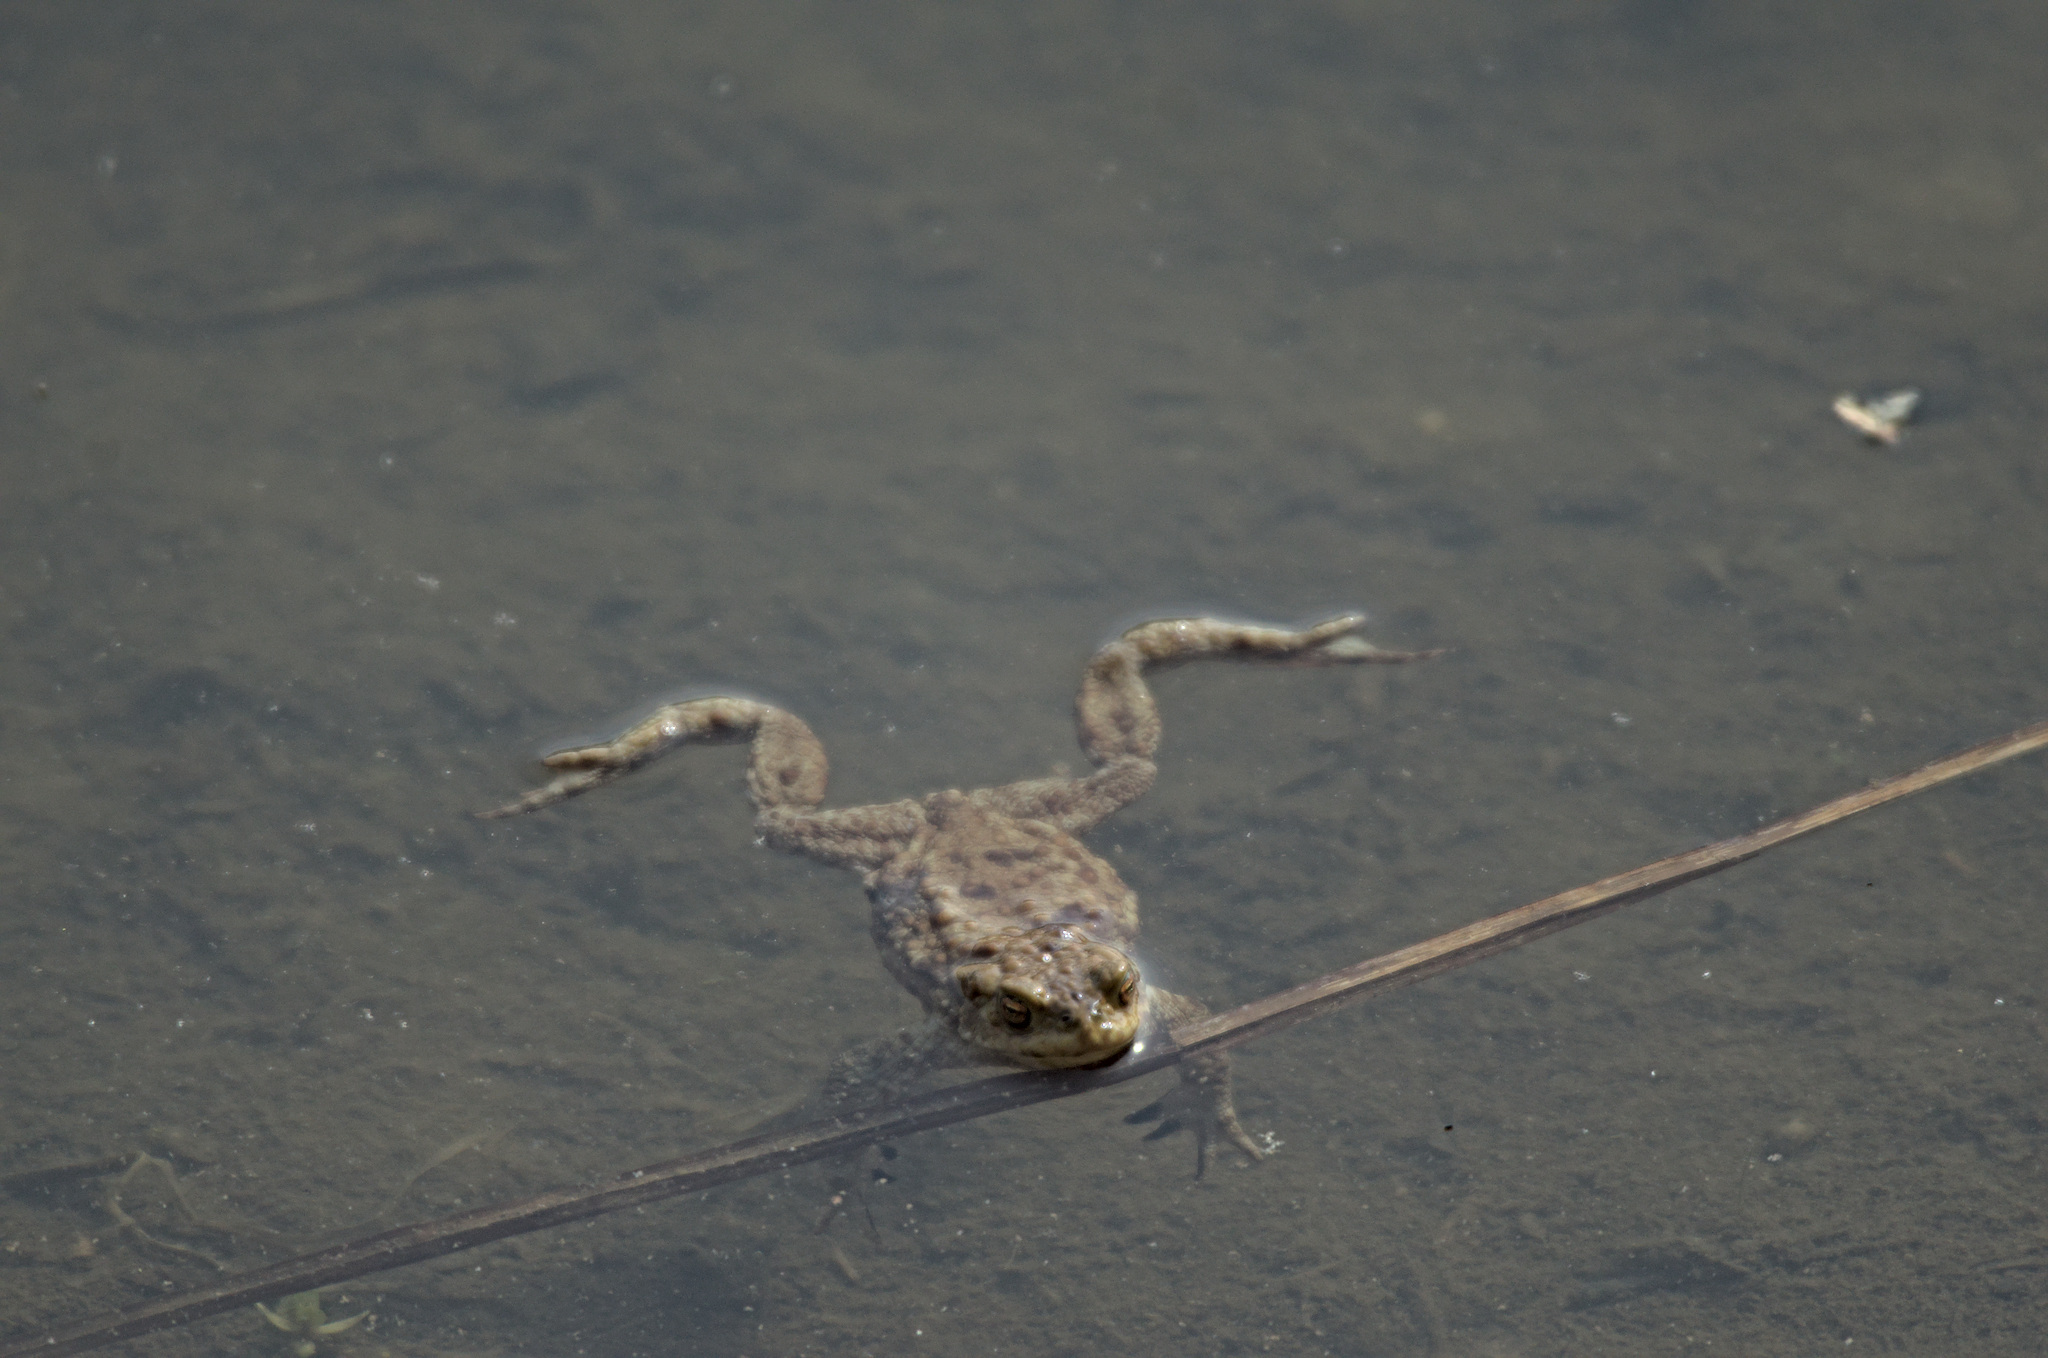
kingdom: Animalia
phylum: Chordata
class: Amphibia
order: Anura
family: Bufonidae
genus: Bufo
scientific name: Bufo bufo
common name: Common toad
